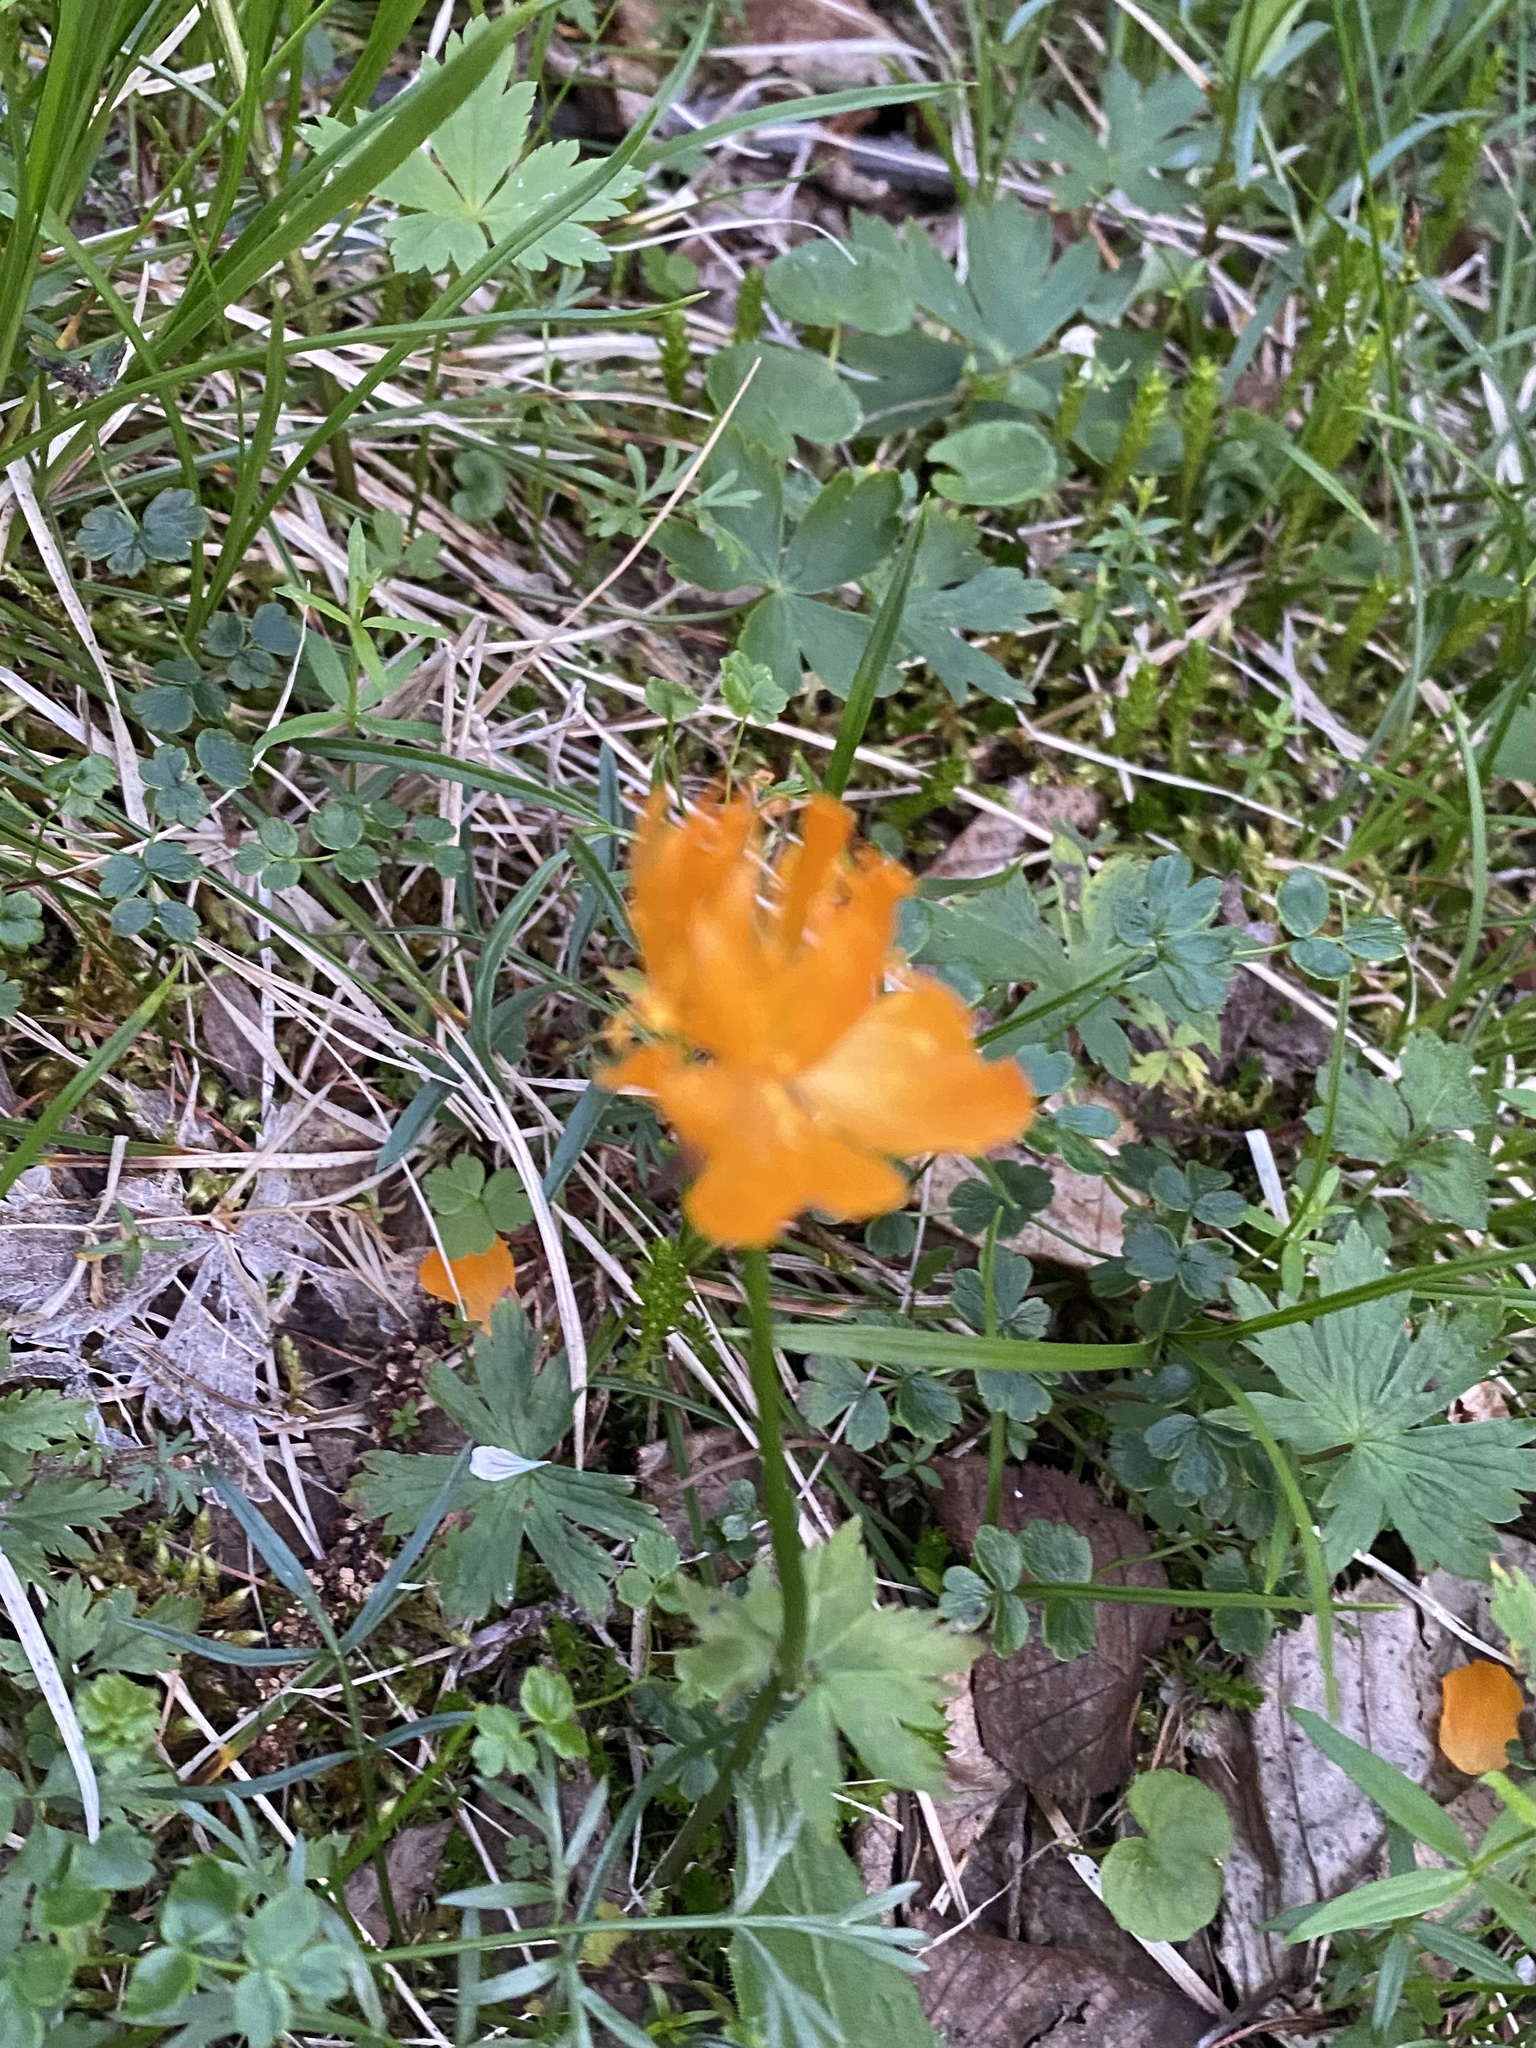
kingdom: Plantae
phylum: Tracheophyta
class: Magnoliopsida
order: Ranunculales
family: Ranunculaceae
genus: Trollius
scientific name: Trollius asiaticus
